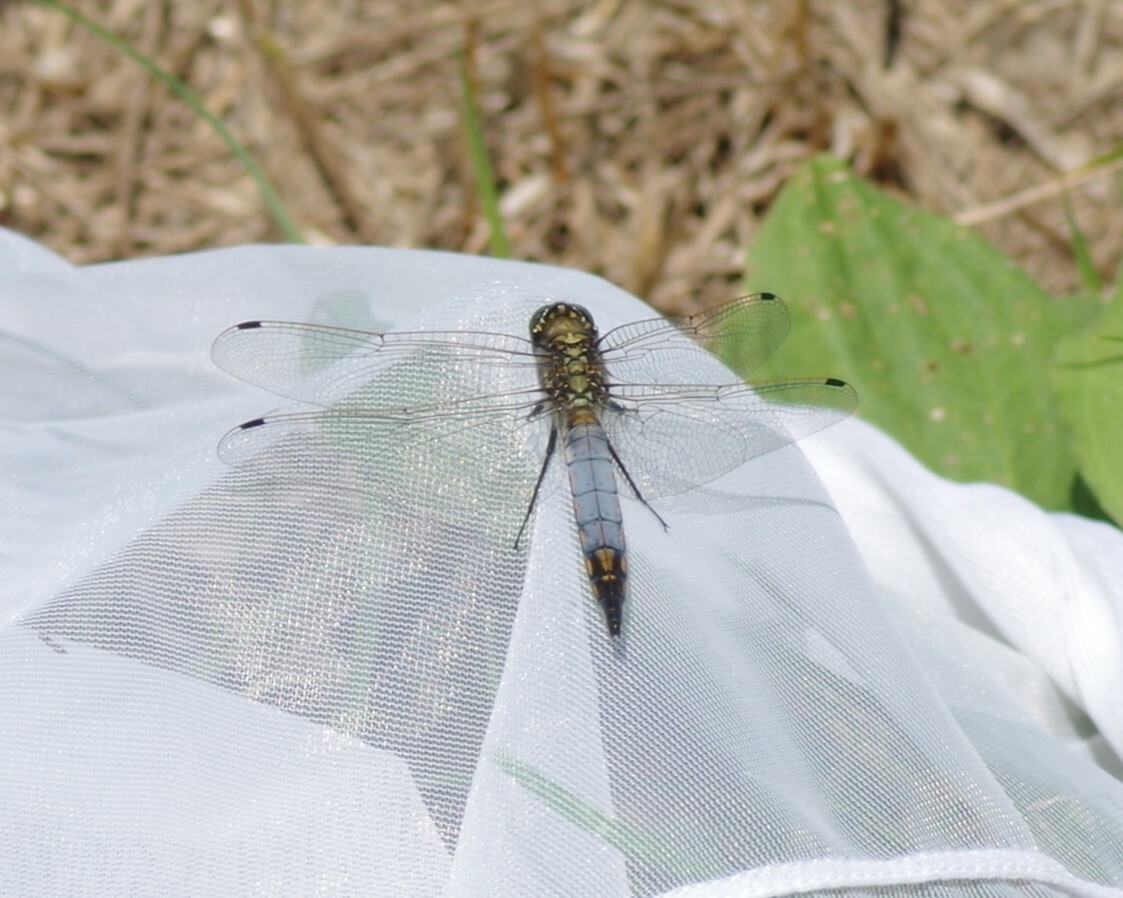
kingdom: Animalia
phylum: Arthropoda
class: Insecta
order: Odonata
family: Libellulidae
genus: Orthetrum
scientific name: Orthetrum cancellatum
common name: Black-tailed skimmer
